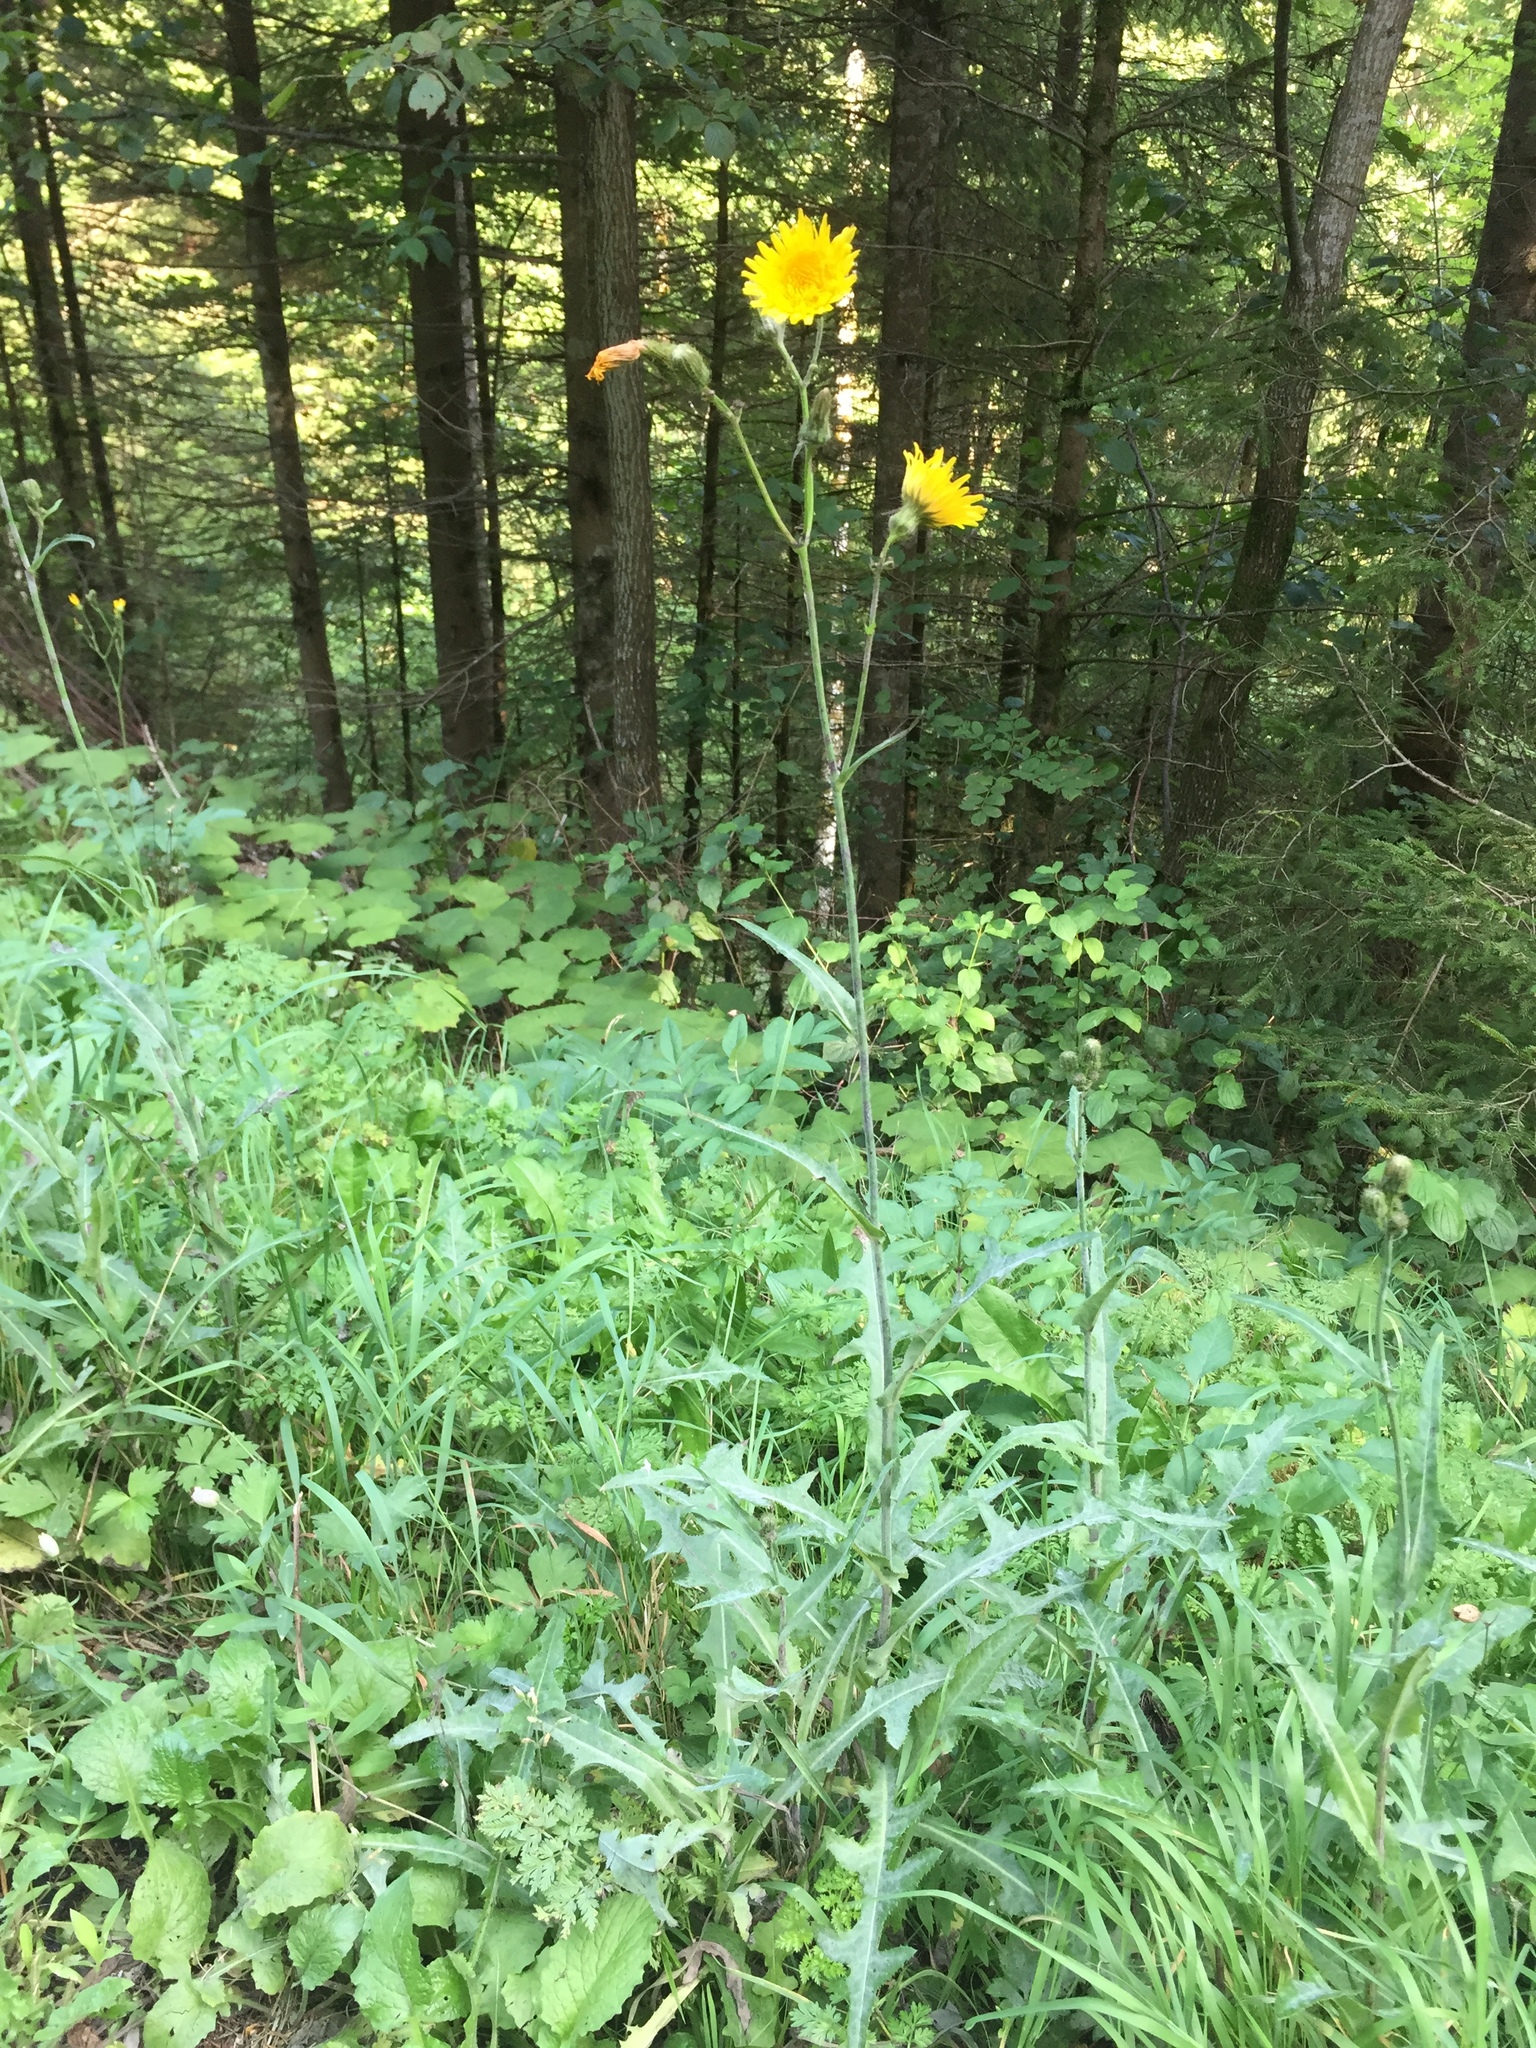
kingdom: Plantae
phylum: Tracheophyta
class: Magnoliopsida
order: Asterales
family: Asteraceae
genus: Sonchus
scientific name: Sonchus arvensis
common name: Perennial sow-thistle
